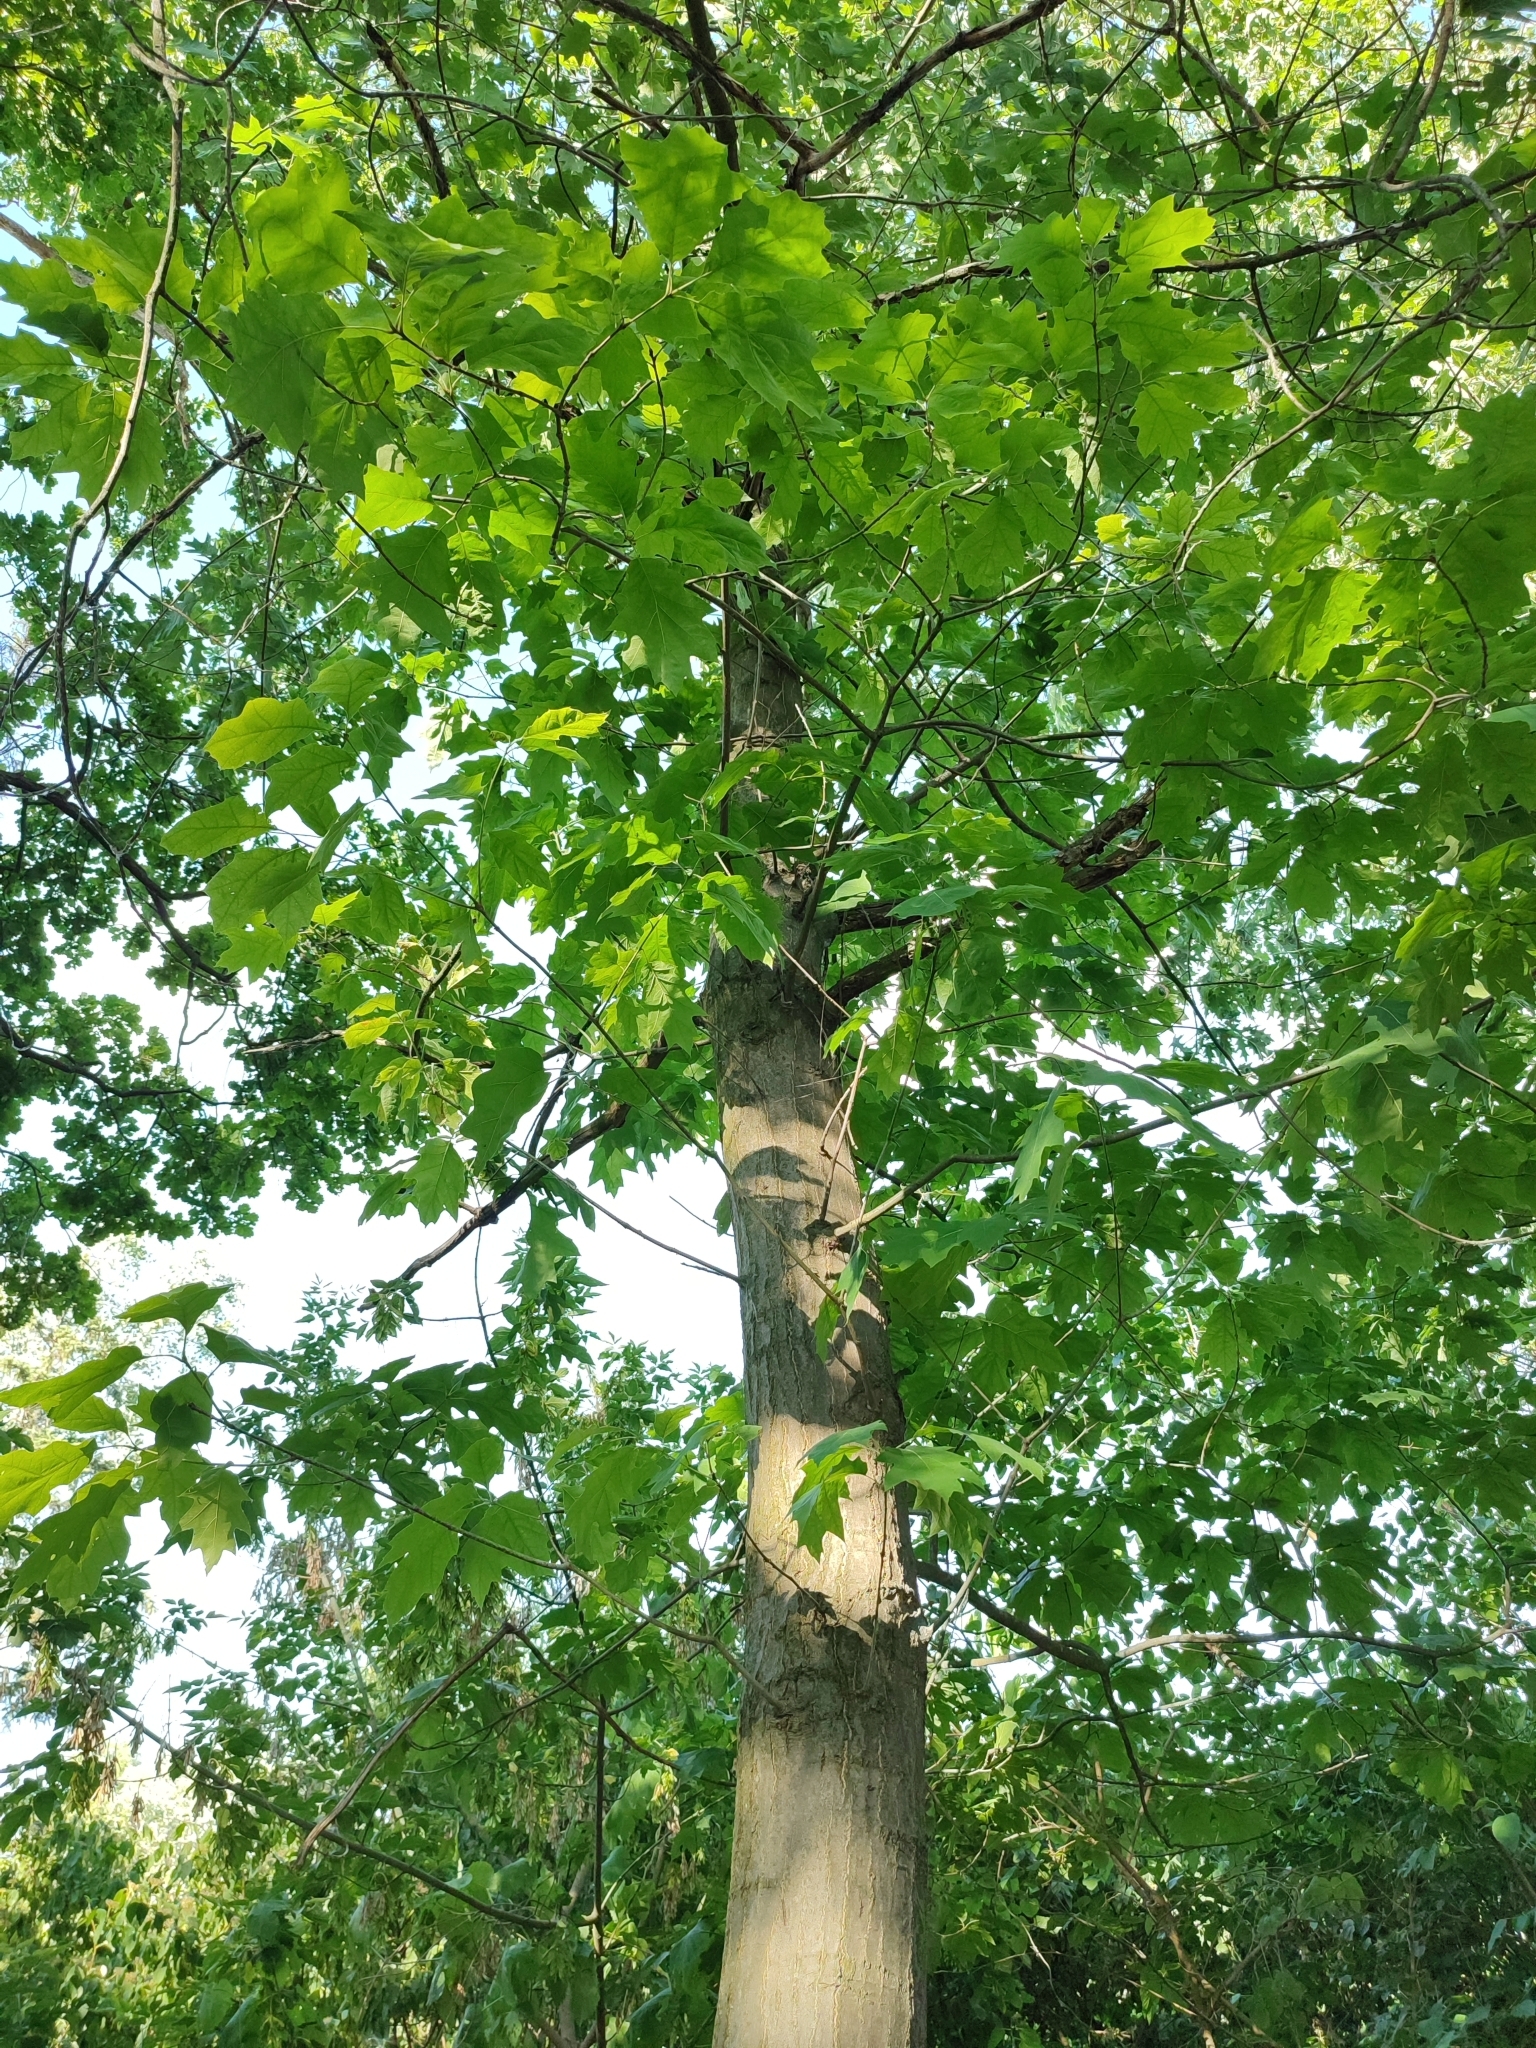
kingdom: Plantae
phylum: Tracheophyta
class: Magnoliopsida
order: Fagales
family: Fagaceae
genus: Quercus
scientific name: Quercus rubra
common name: Red oak
